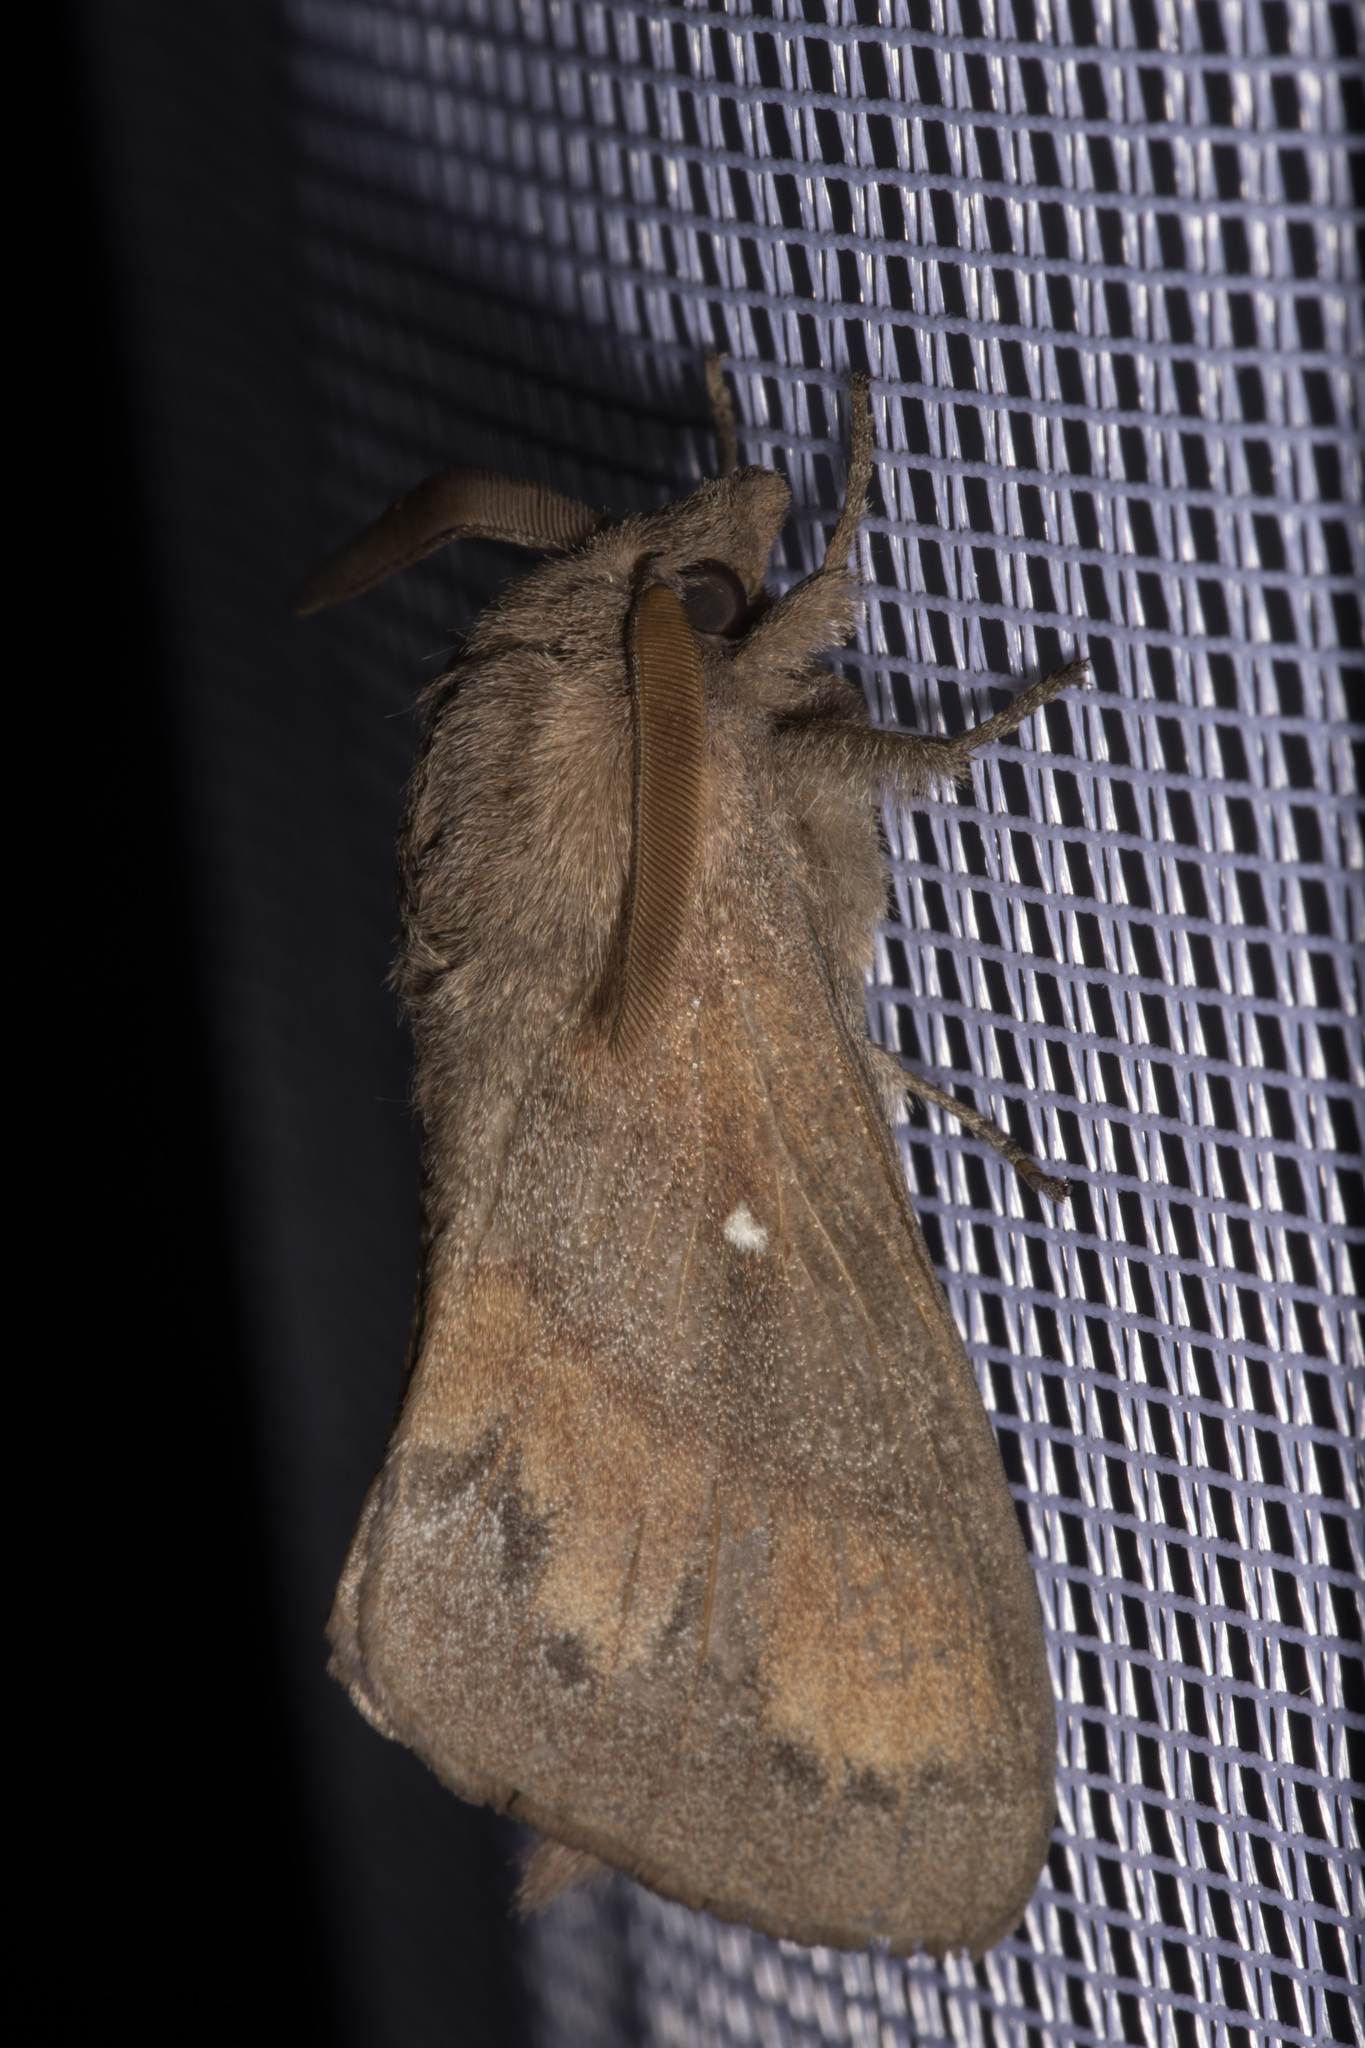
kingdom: Animalia
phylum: Arthropoda
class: Insecta
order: Lepidoptera
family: Lasiocampidae
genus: Dendrolimus
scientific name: Dendrolimus pini
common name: Pine-tree lappet
